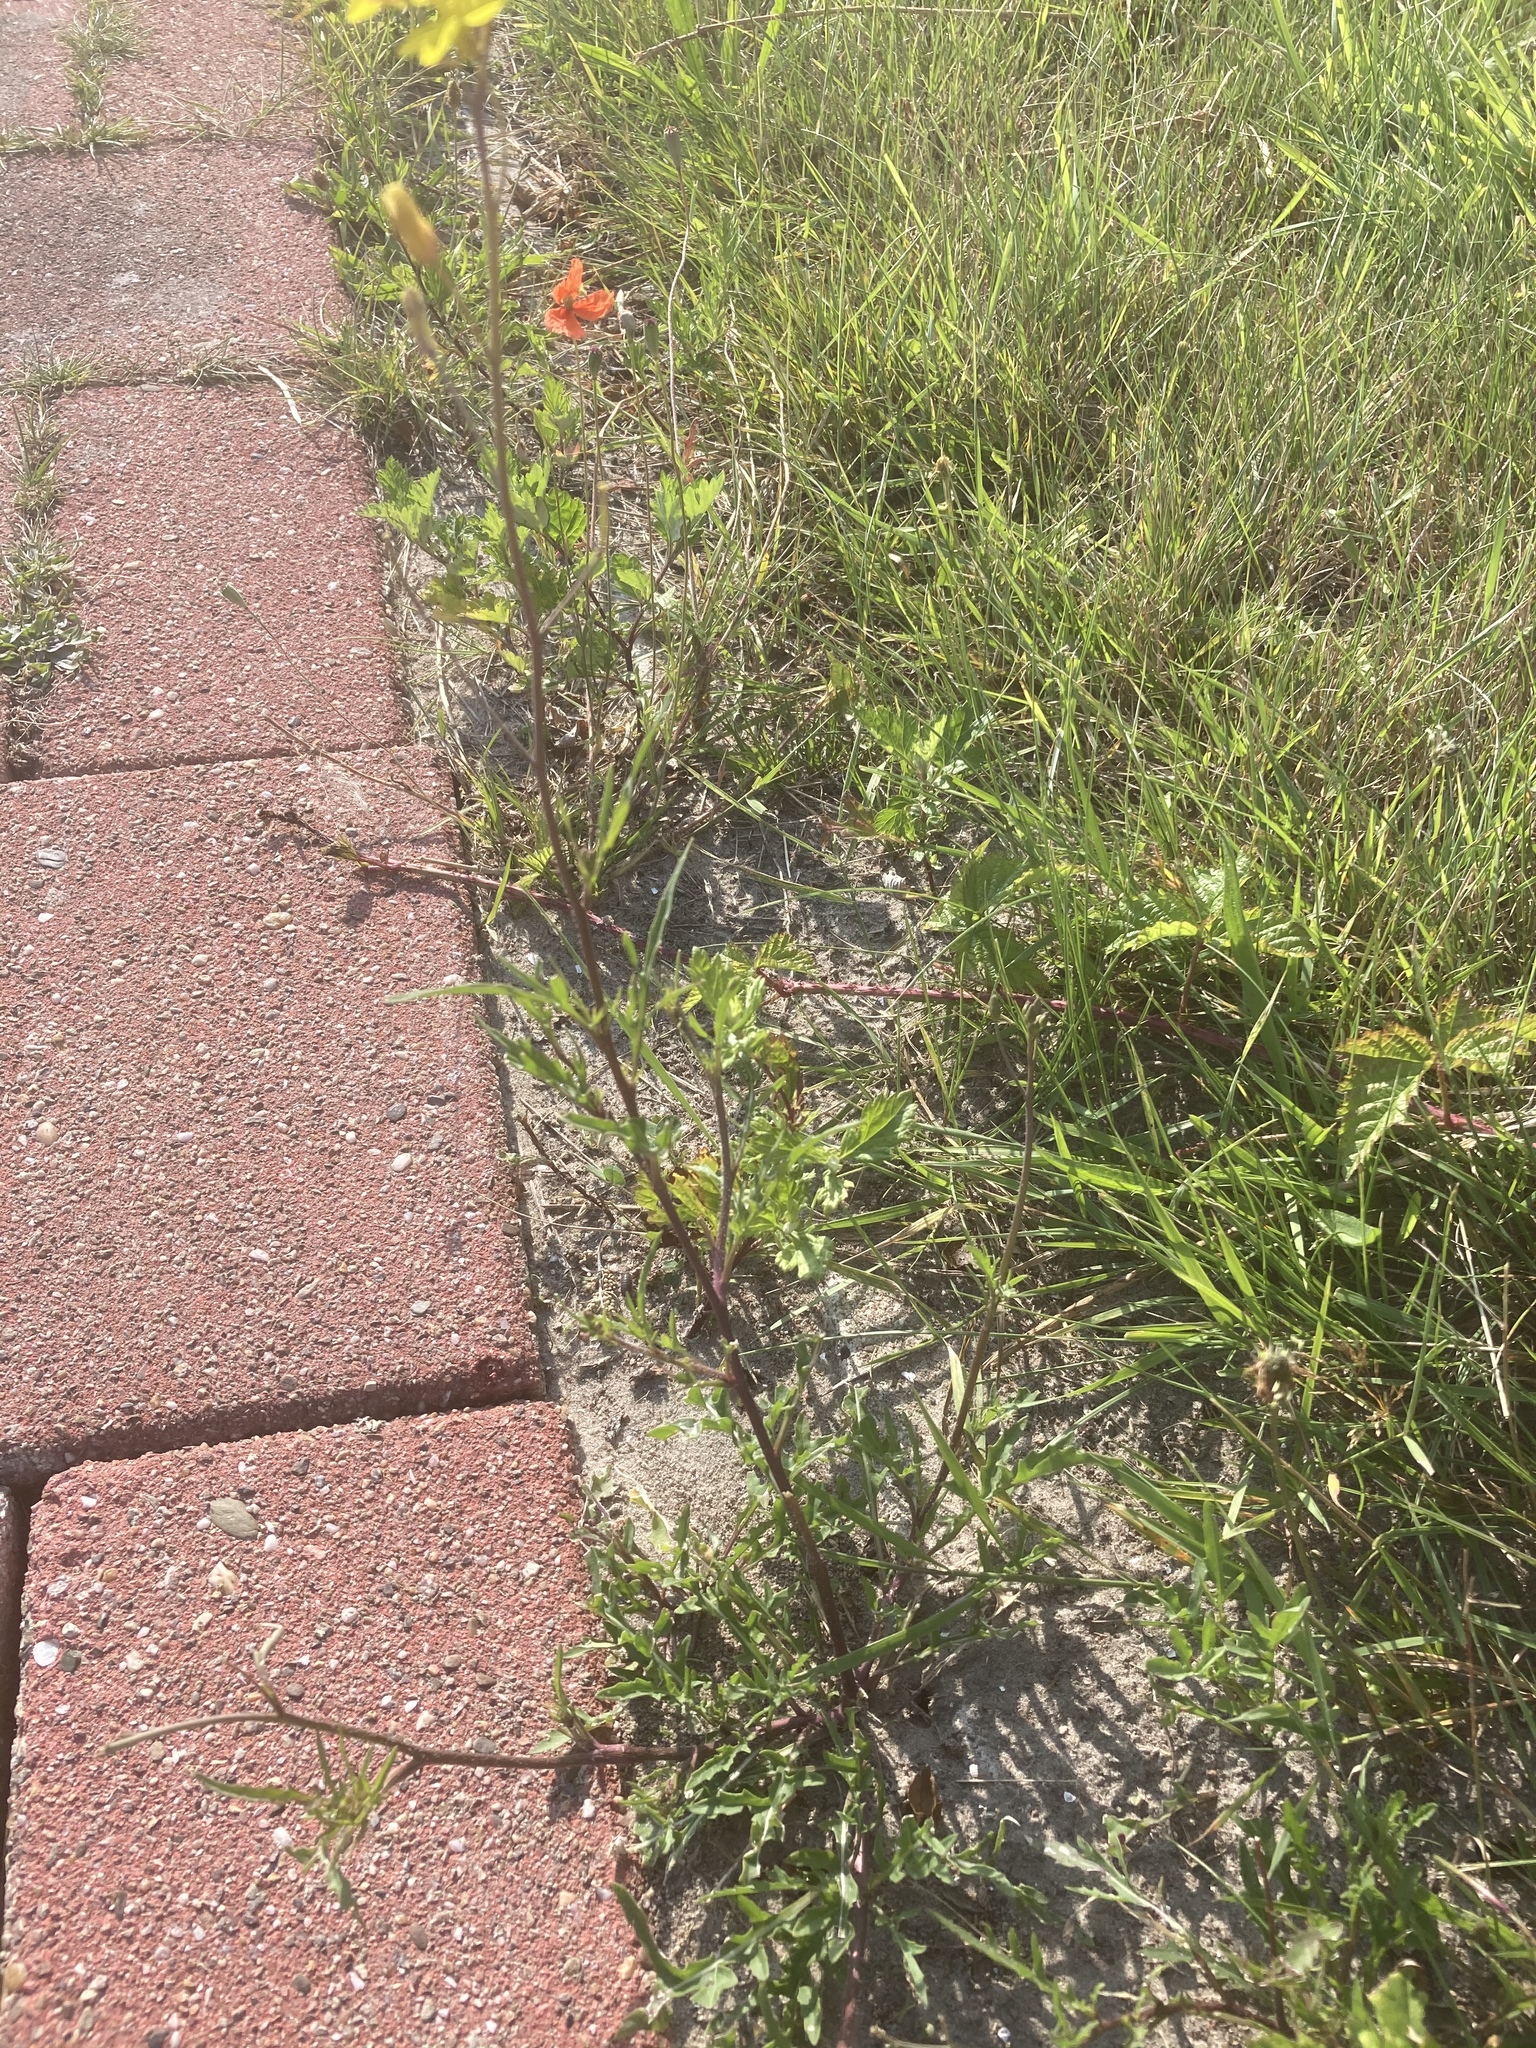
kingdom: Plantae
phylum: Tracheophyta
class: Magnoliopsida
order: Brassicales
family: Brassicaceae
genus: Diplotaxis
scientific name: Diplotaxis tenuifolia
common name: Perennial wall-rocket
